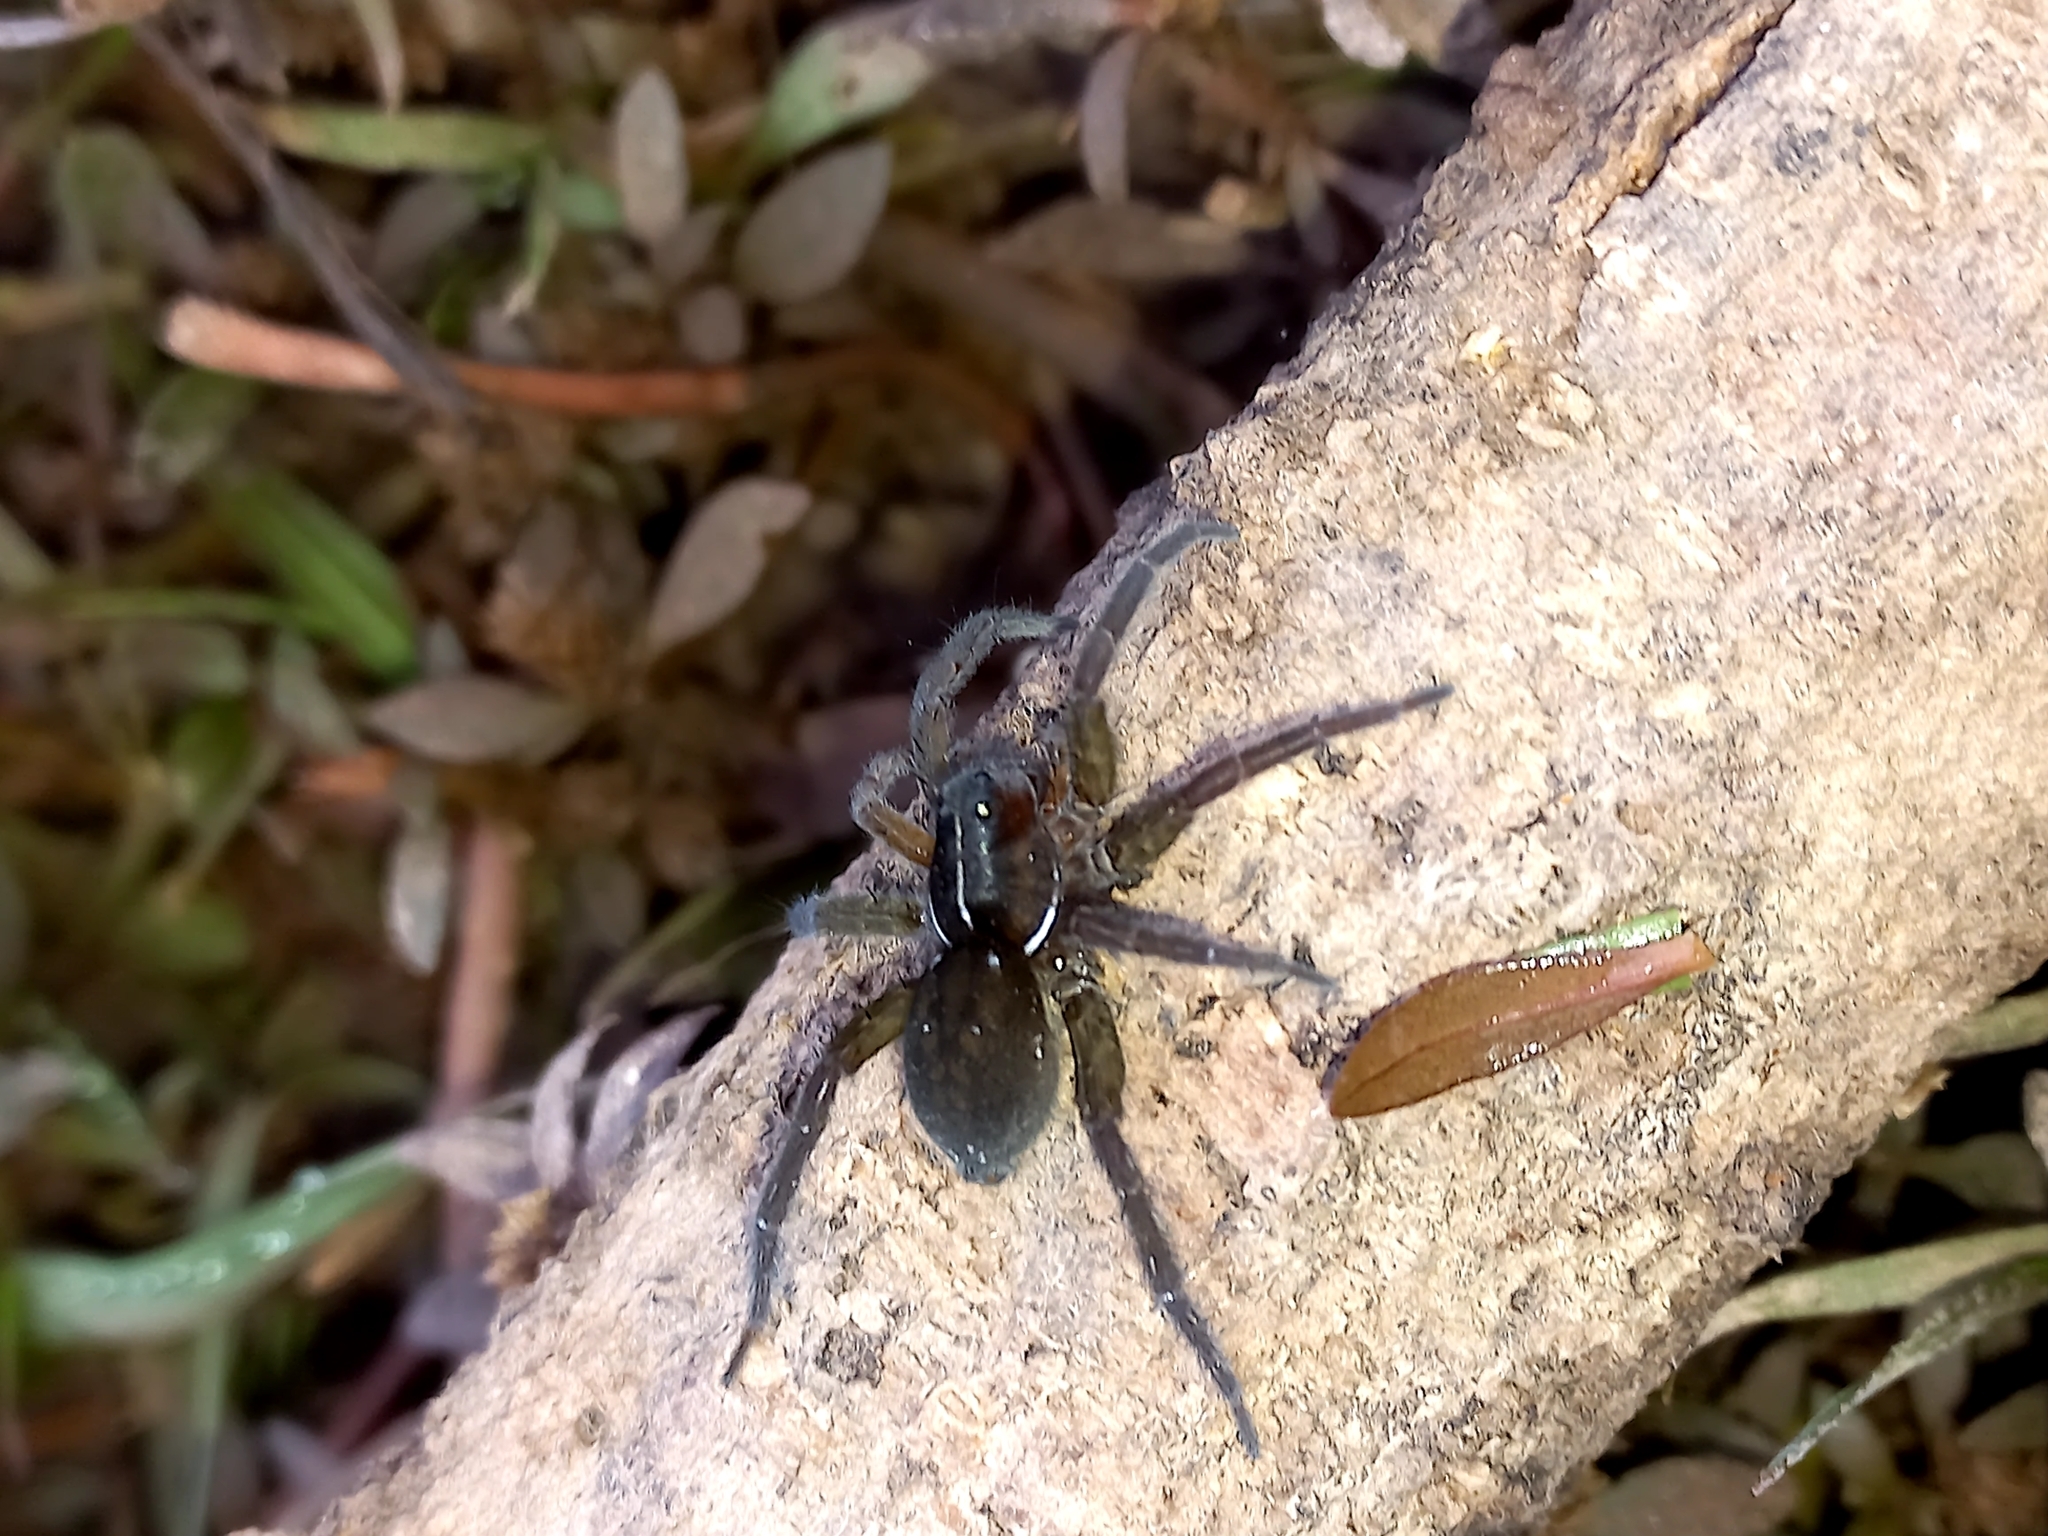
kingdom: Animalia
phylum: Arthropoda
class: Arachnida
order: Araneae
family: Lycosidae
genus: Allocosa
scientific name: Allocosa paraguayensis
